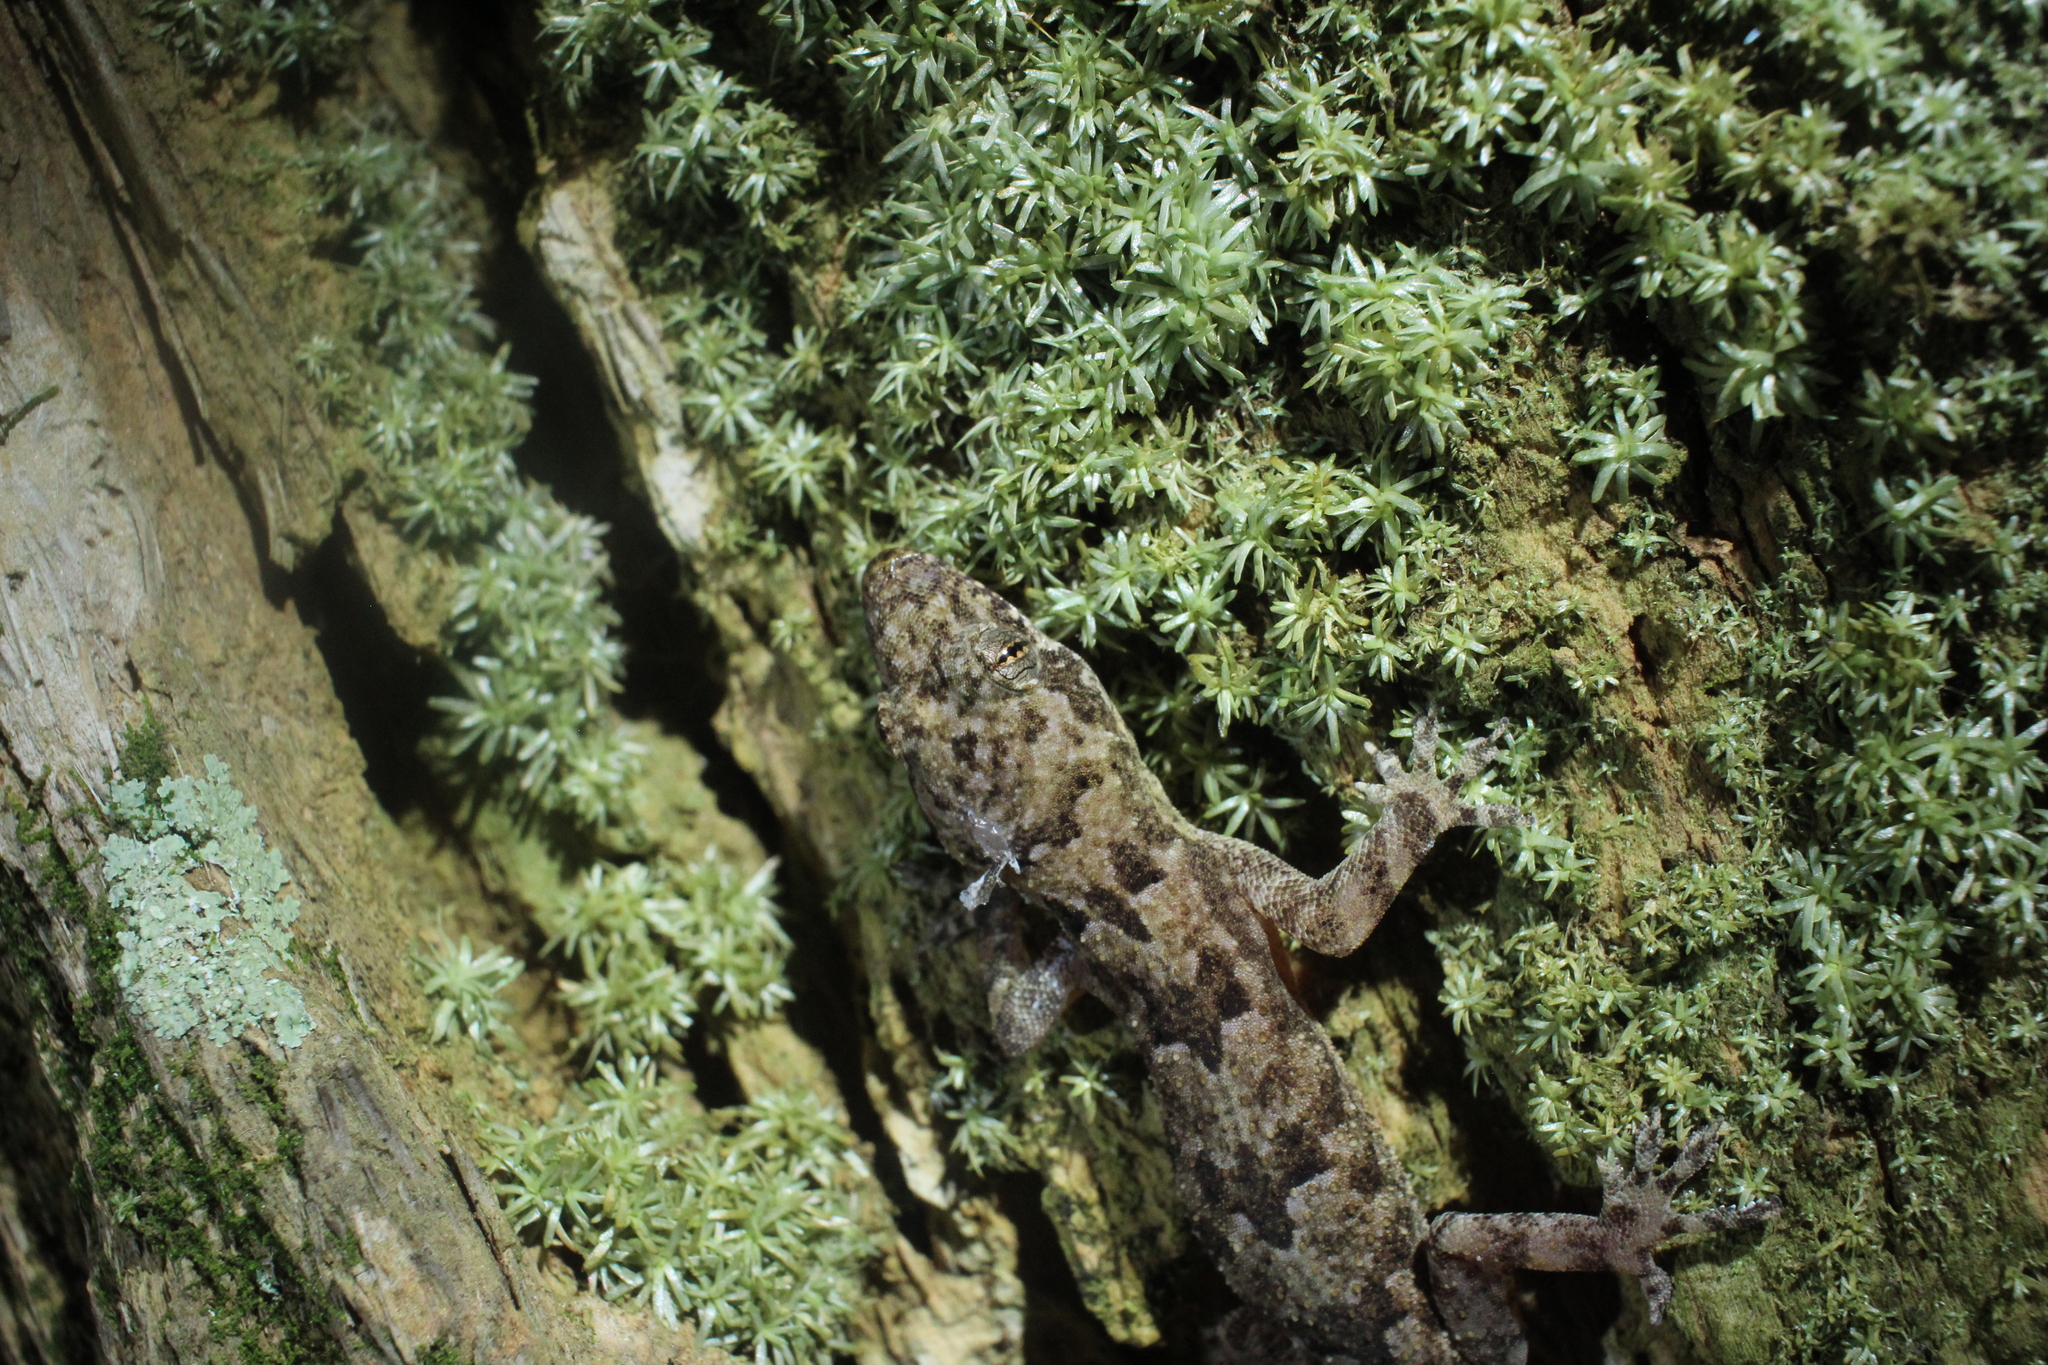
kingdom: Animalia
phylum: Chordata
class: Squamata
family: Gekkonidae
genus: Hemidactylus
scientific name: Hemidactylus mabouia
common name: House gecko
